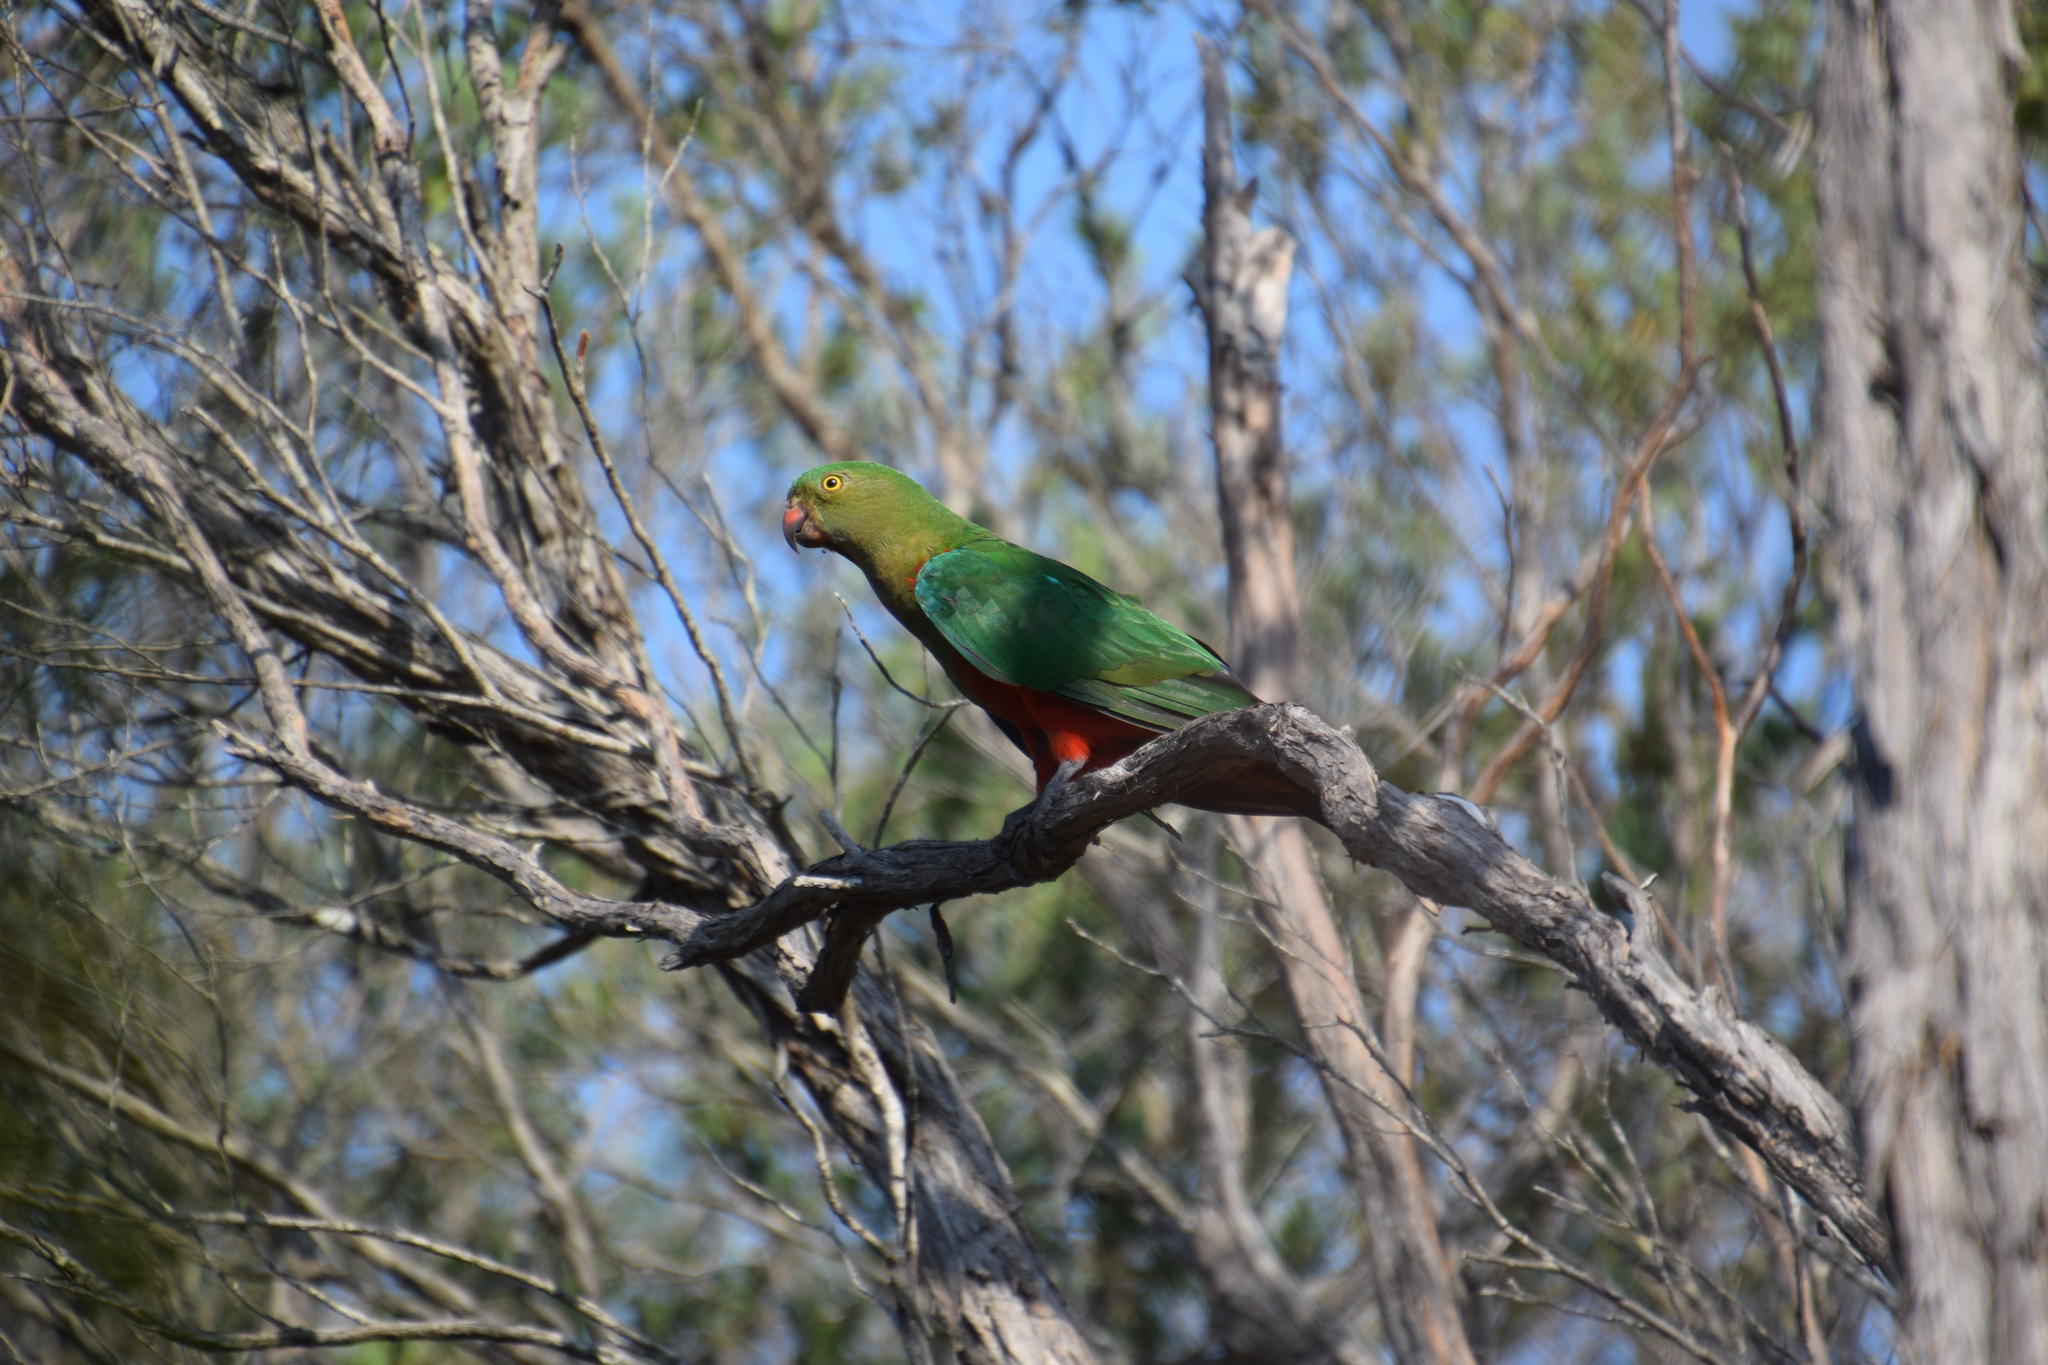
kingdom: Animalia
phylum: Chordata
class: Aves
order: Psittaciformes
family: Psittacidae
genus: Alisterus
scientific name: Alisterus scapularis
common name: Australian king parrot
